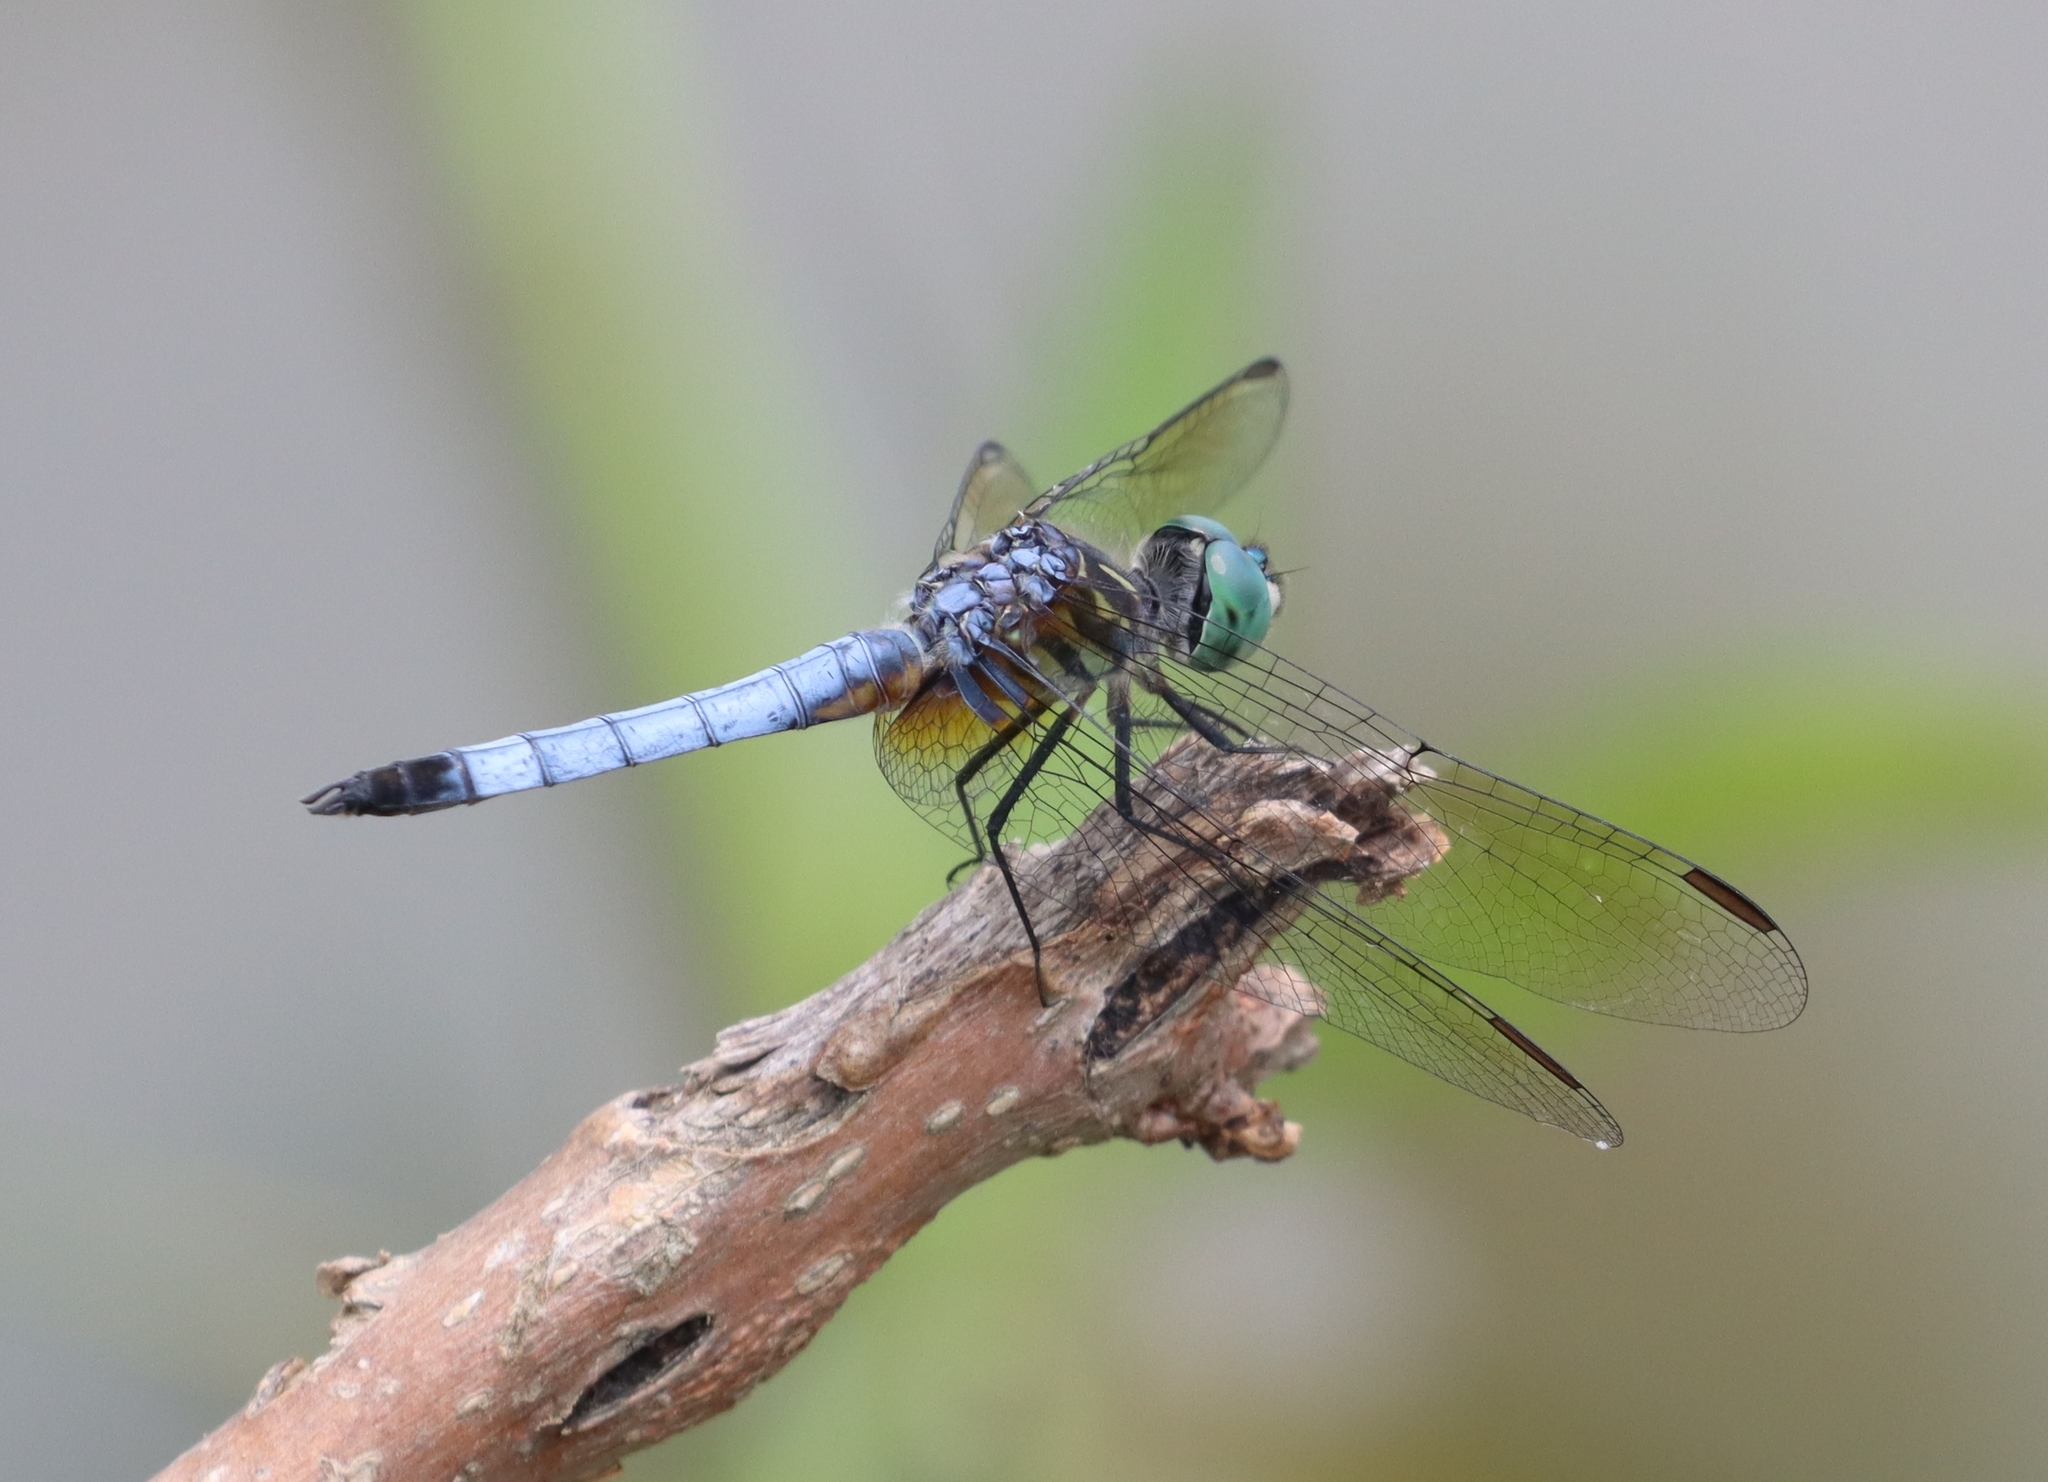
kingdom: Animalia
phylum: Arthropoda
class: Insecta
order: Odonata
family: Libellulidae
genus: Pachydiplax
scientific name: Pachydiplax longipennis
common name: Blue dasher
